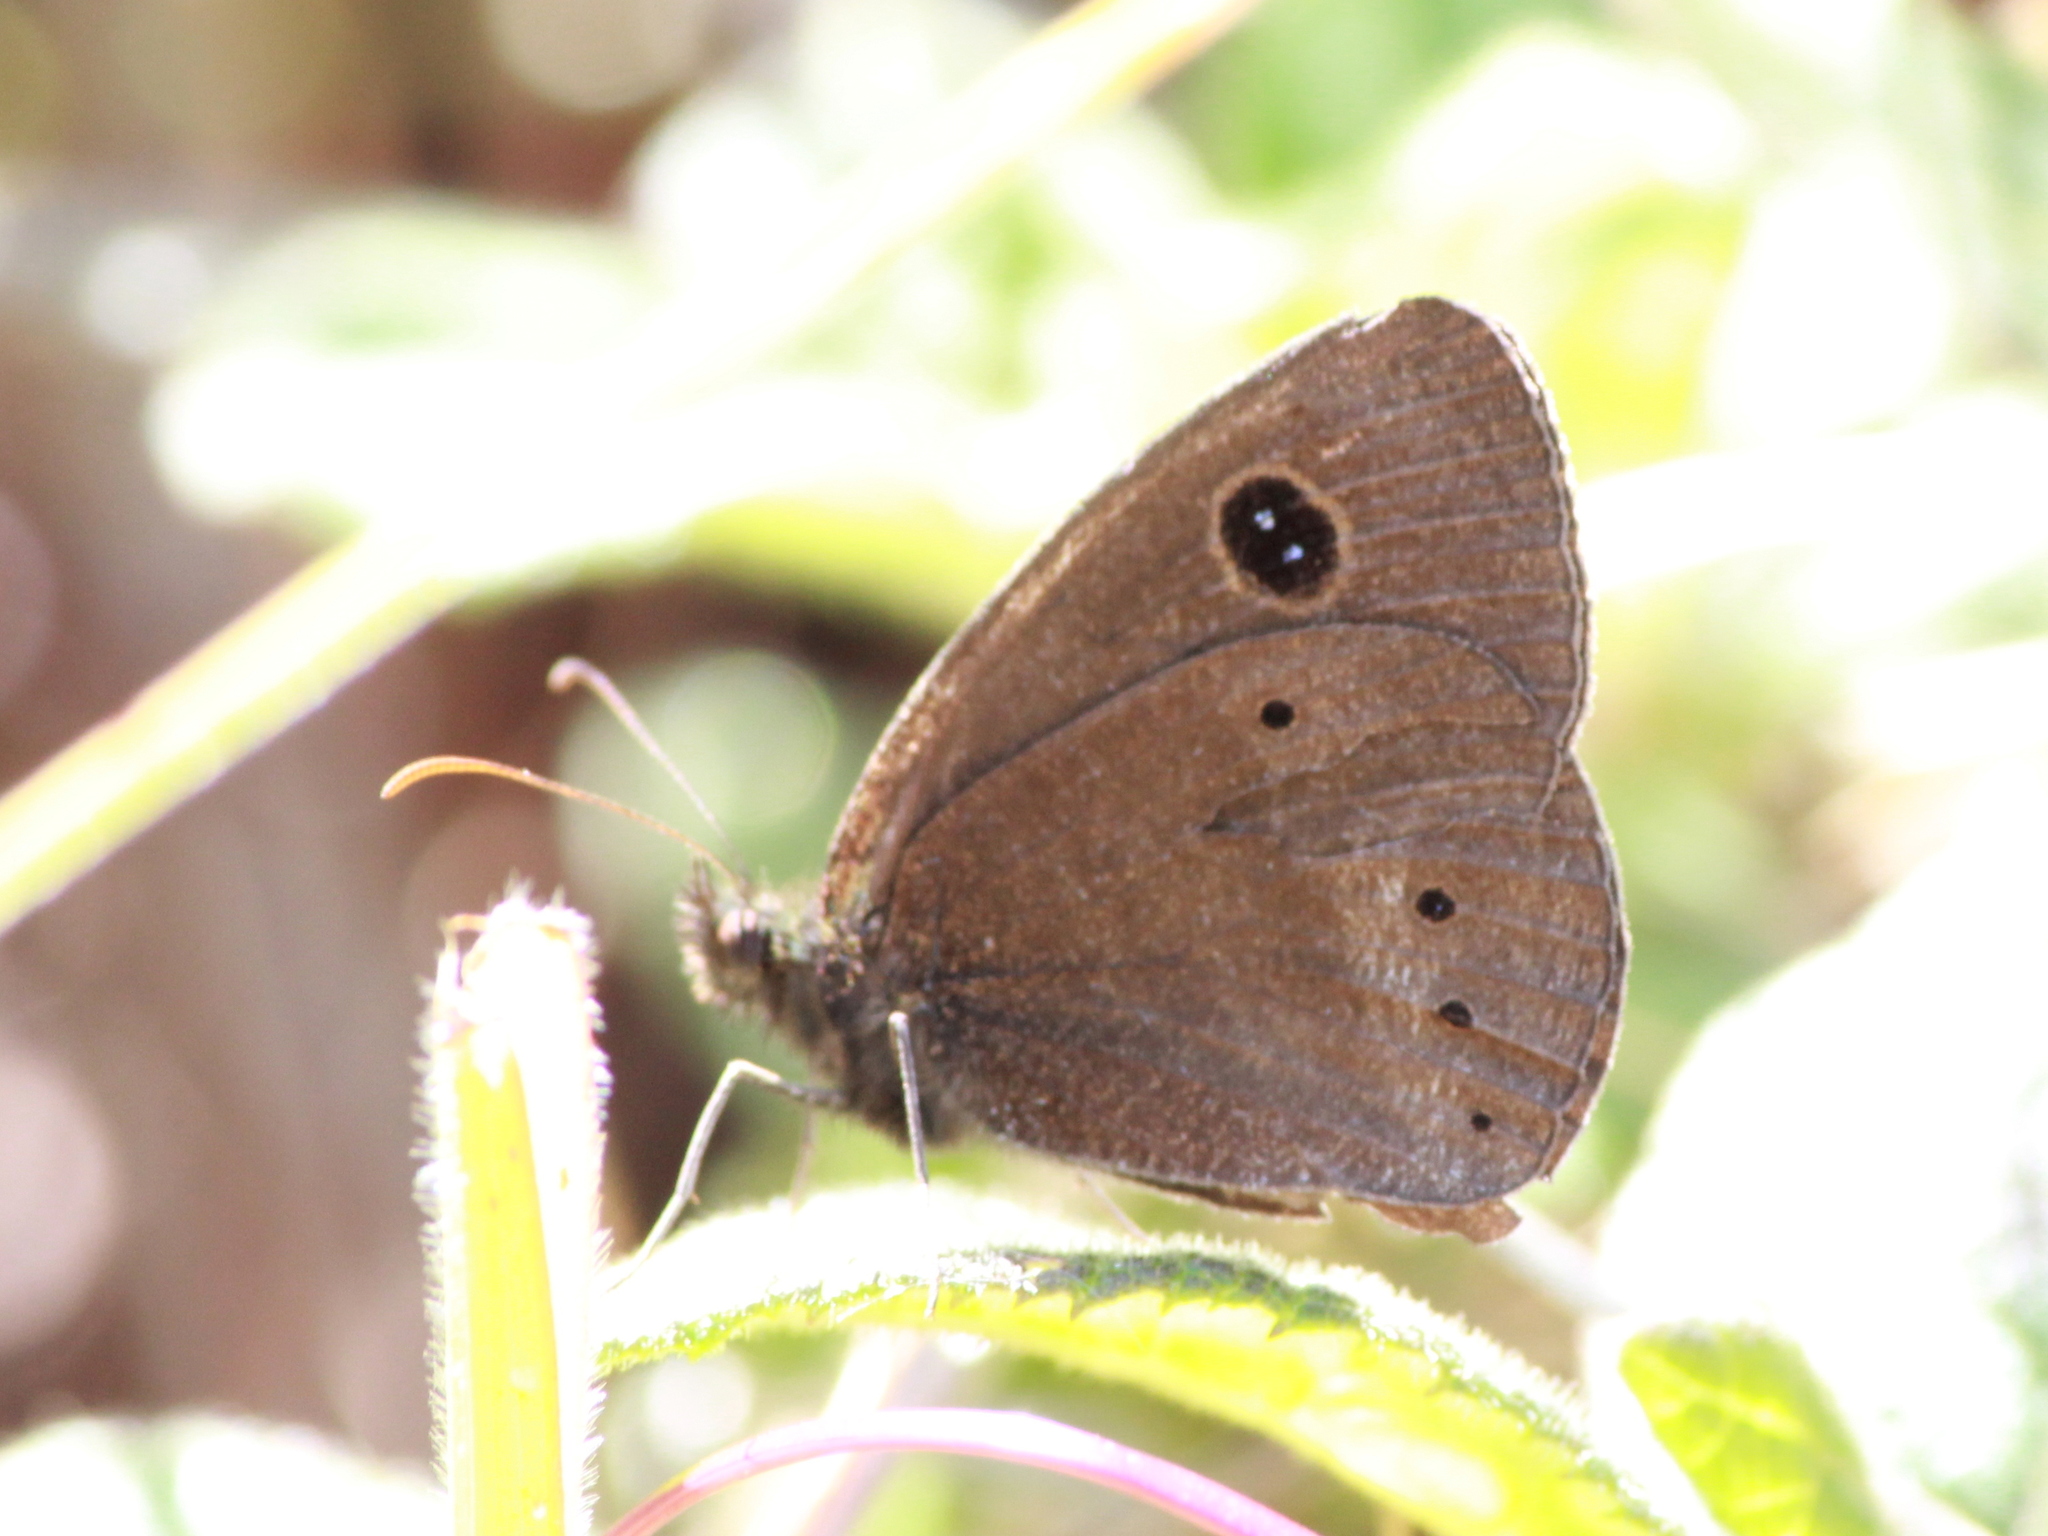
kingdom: Animalia
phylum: Arthropoda
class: Insecta
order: Lepidoptera
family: Nymphalidae
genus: Ypthima
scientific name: Ypthima ypthimoides
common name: Palni four-ring
